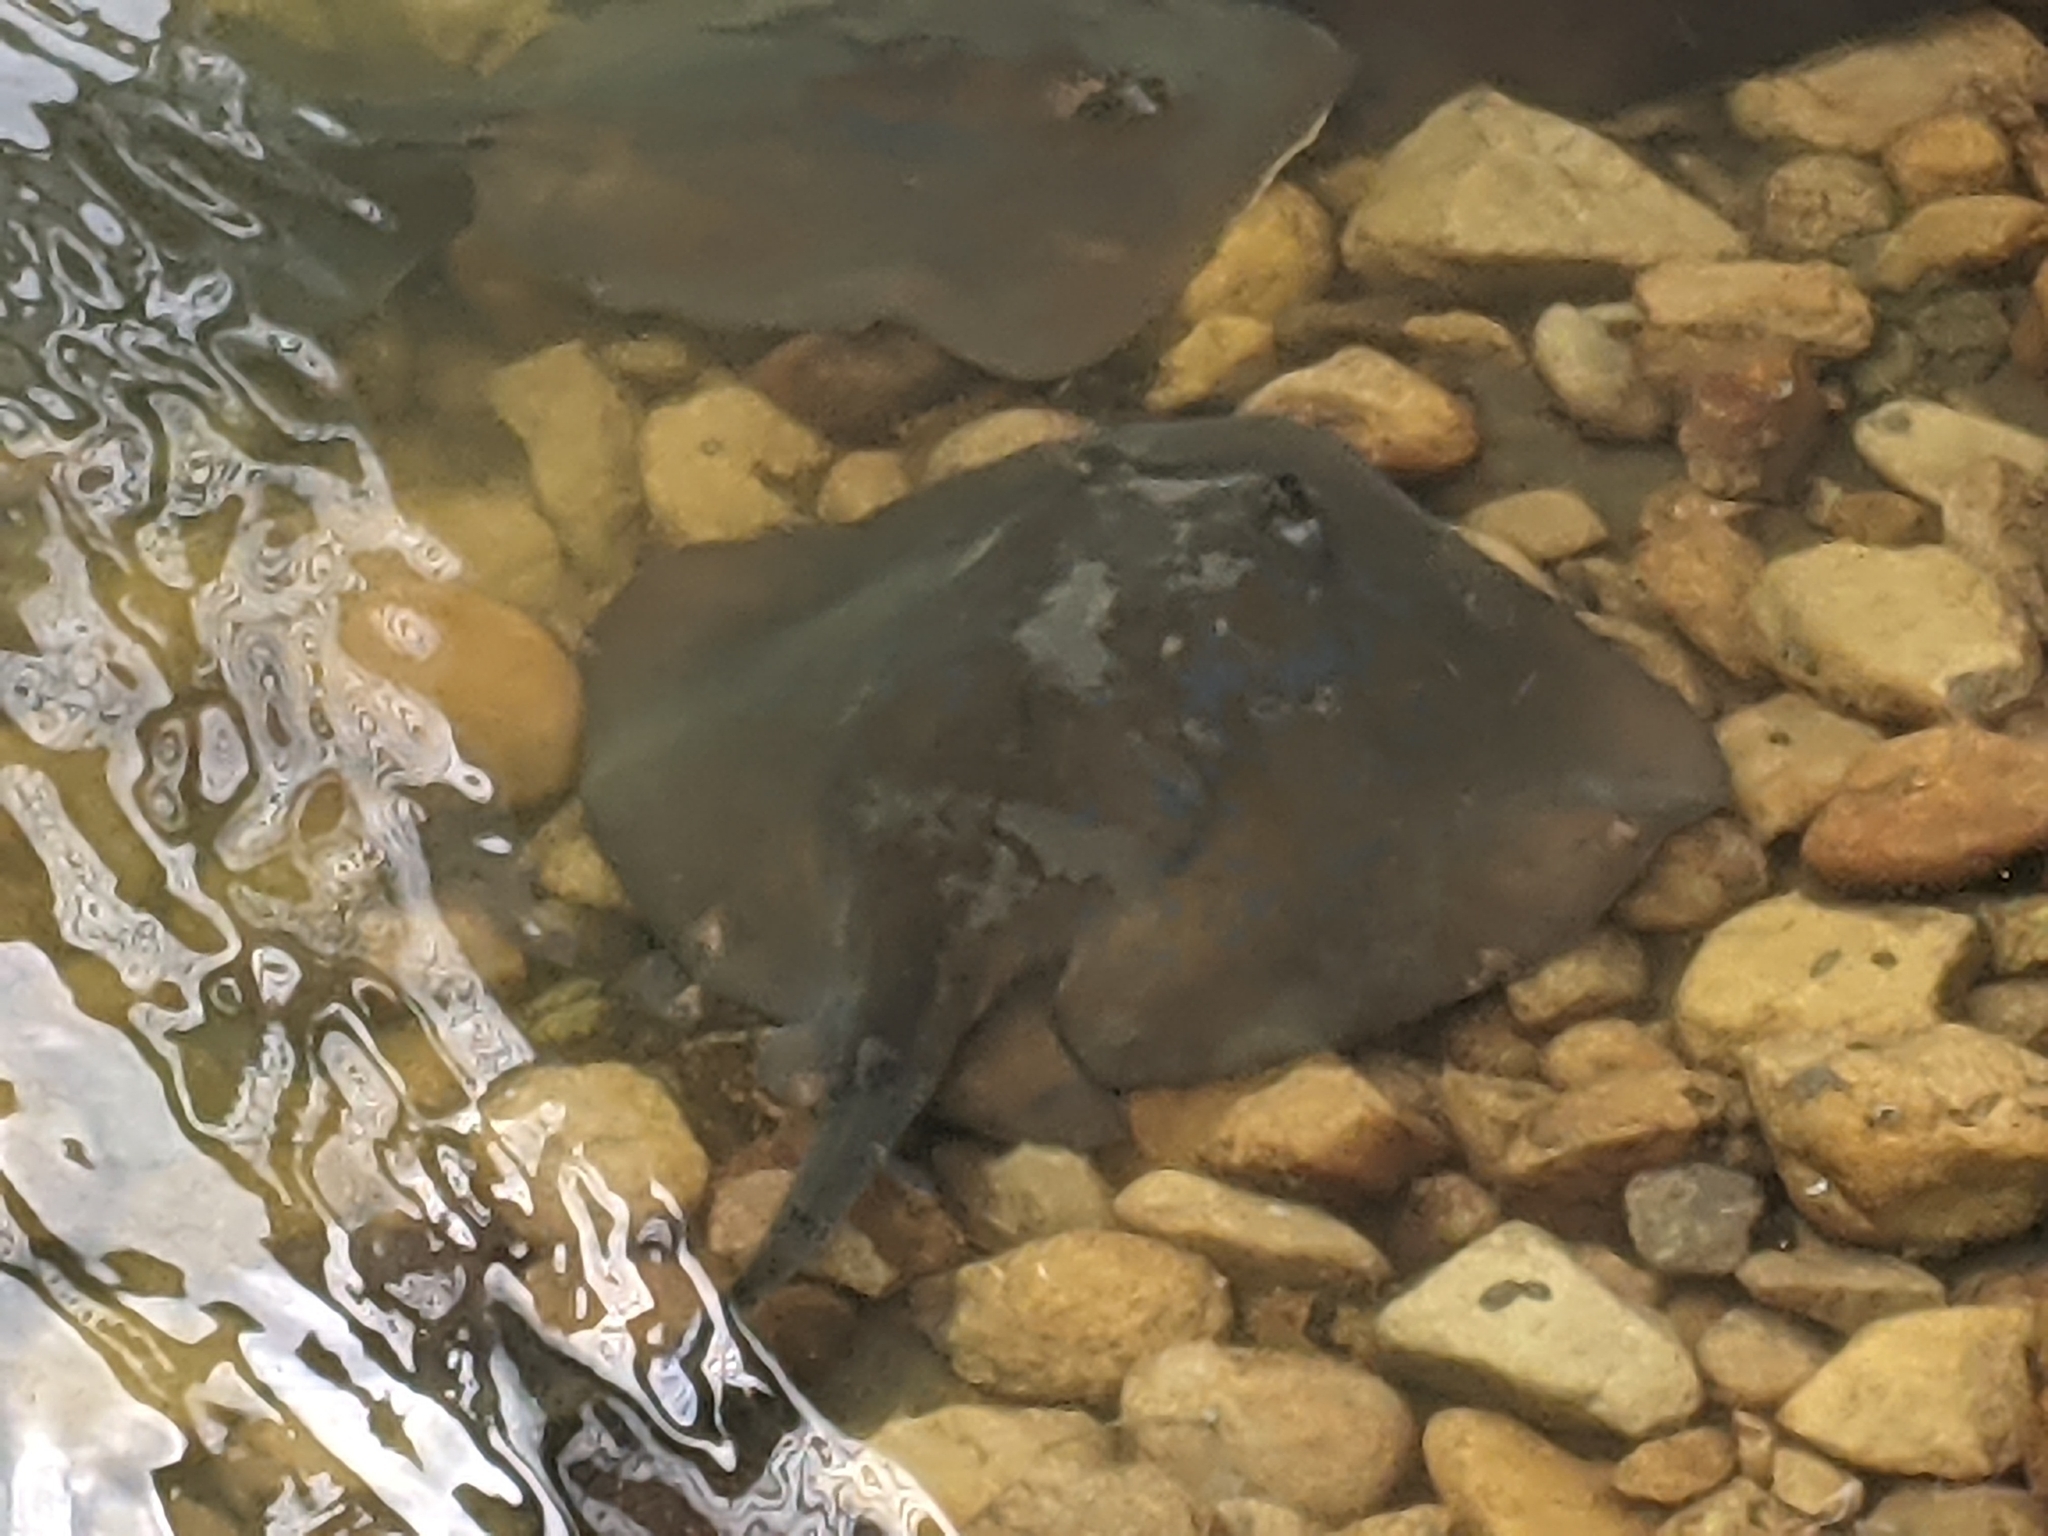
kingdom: Animalia
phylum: Chordata
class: Elasmobranchii
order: Myliobatiformes
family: Dasyatidae
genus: Dasyatis
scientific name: Dasyatis chrysonota
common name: Blue stingray
